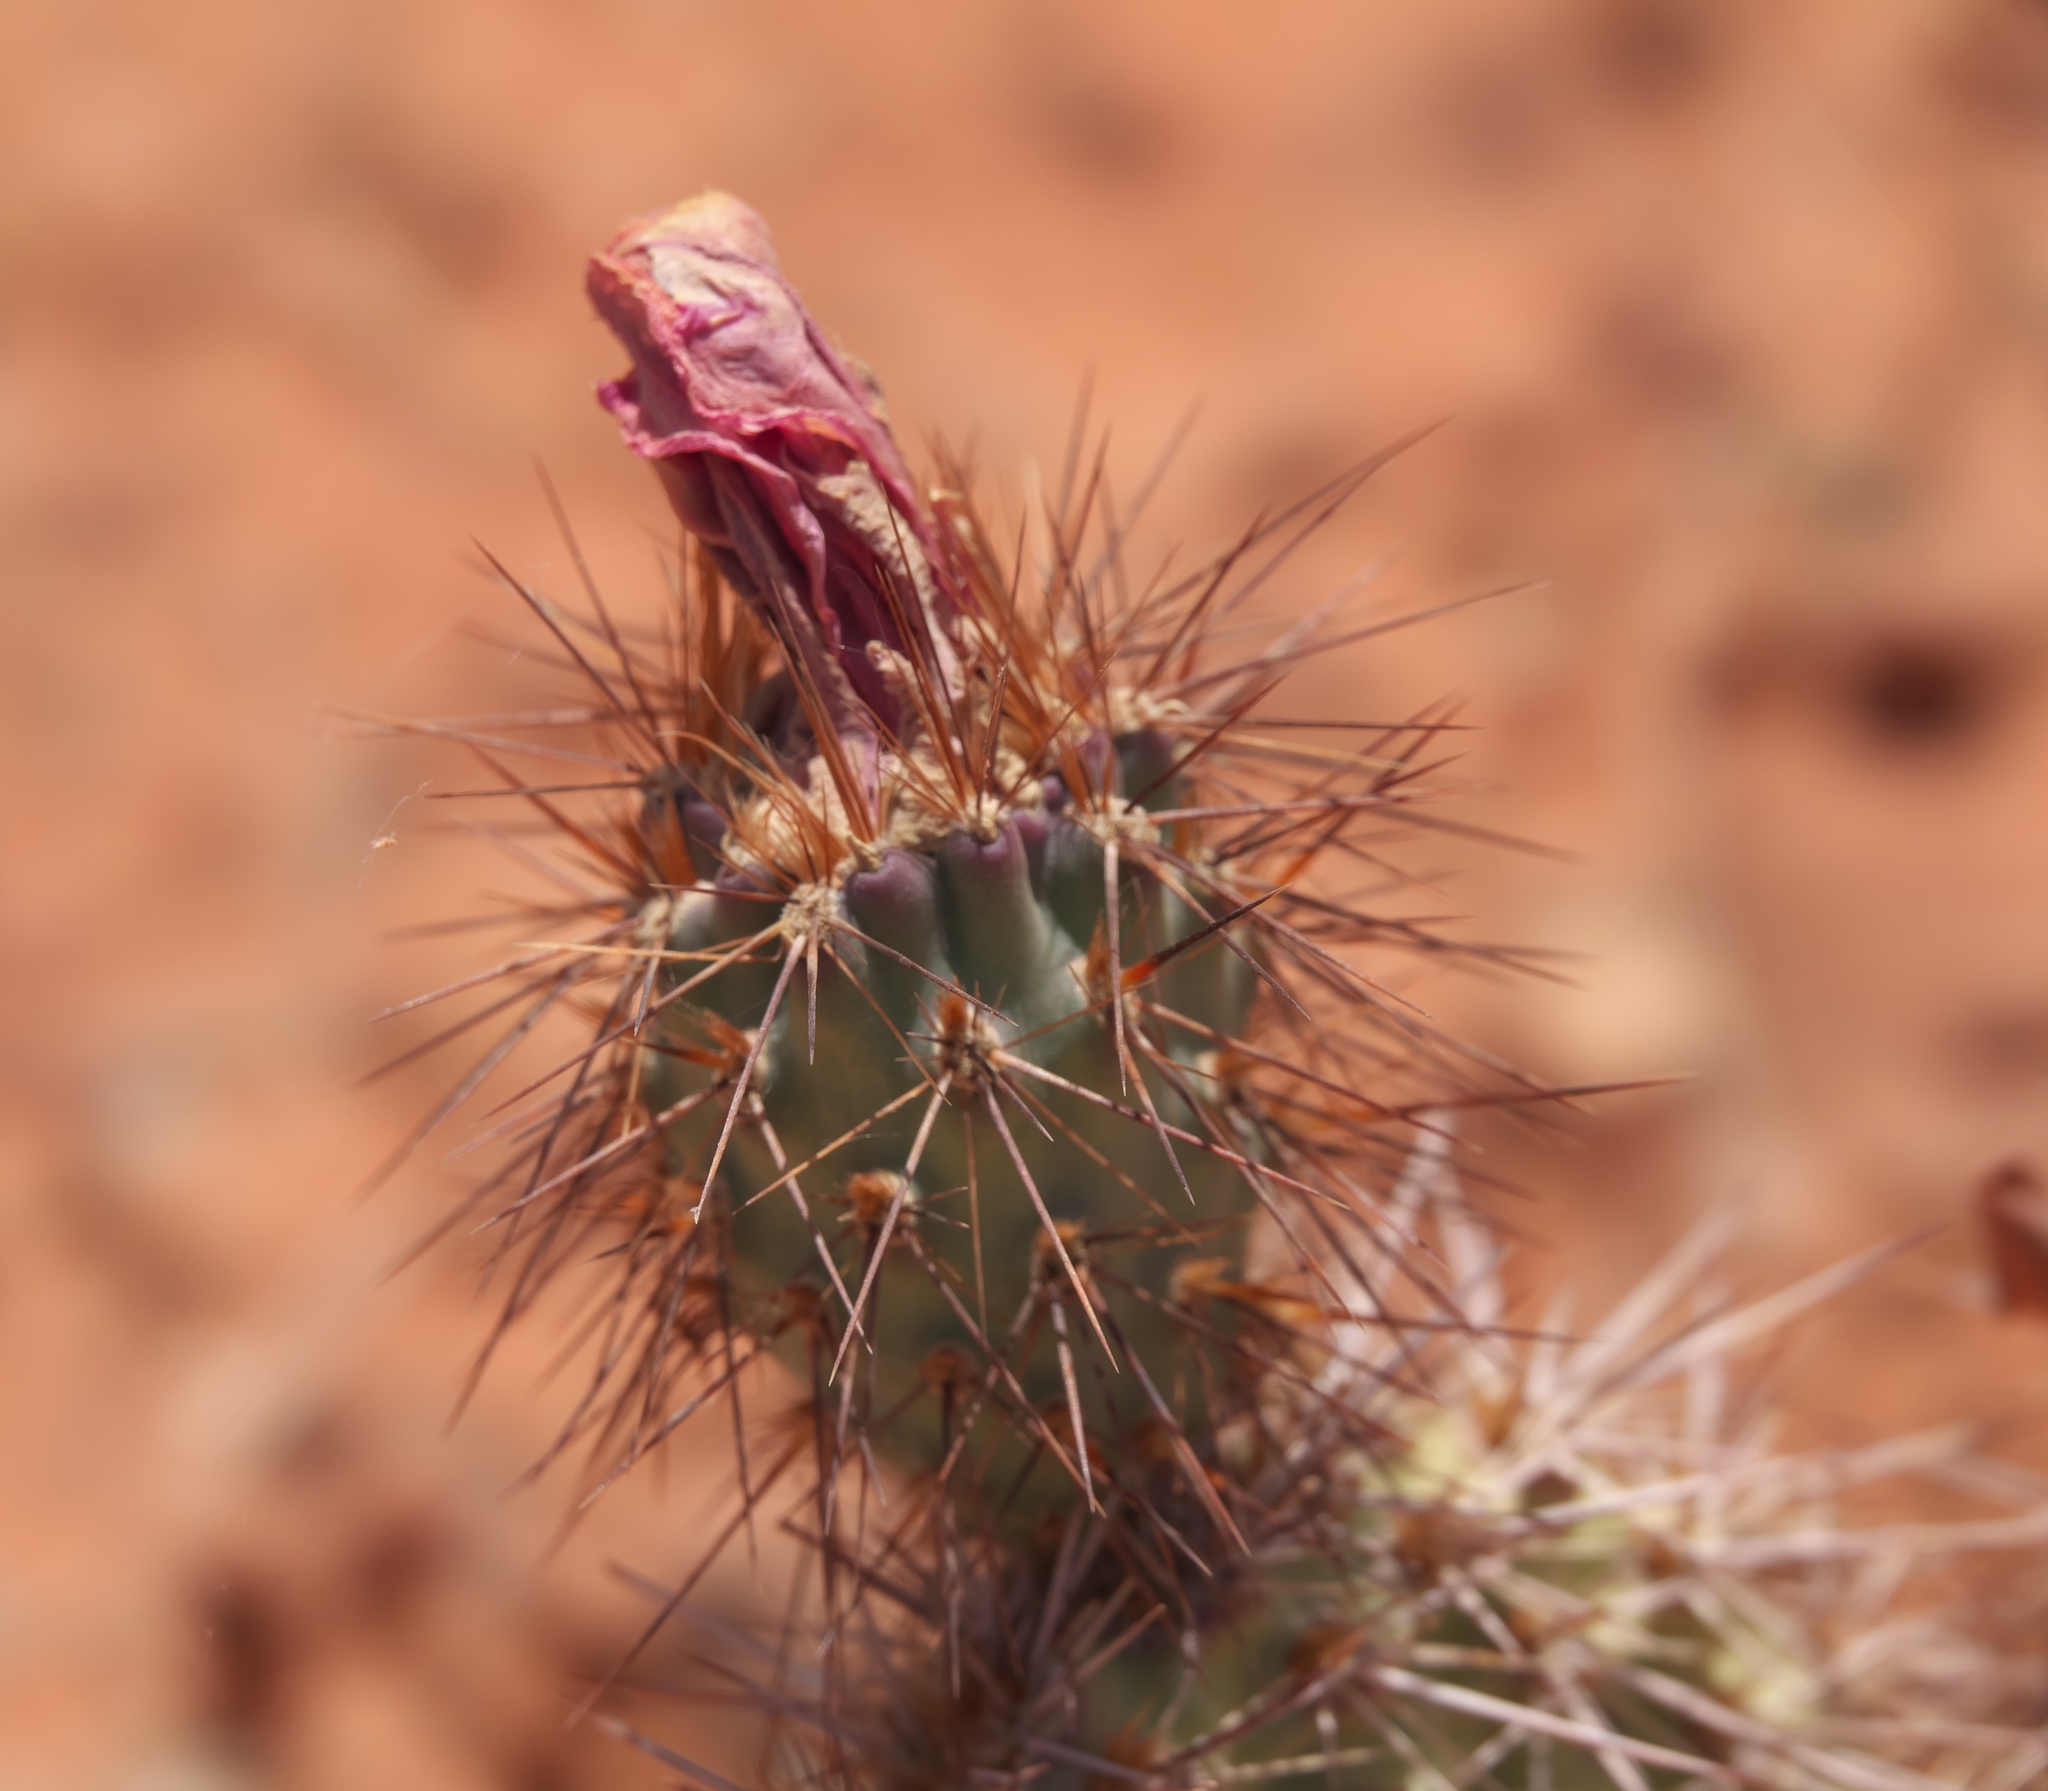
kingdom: Plantae
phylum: Tracheophyta
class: Magnoliopsida
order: Caryophyllales
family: Cactaceae
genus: Opuntia
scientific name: Opuntia polyacantha
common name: Plains prickly-pear
